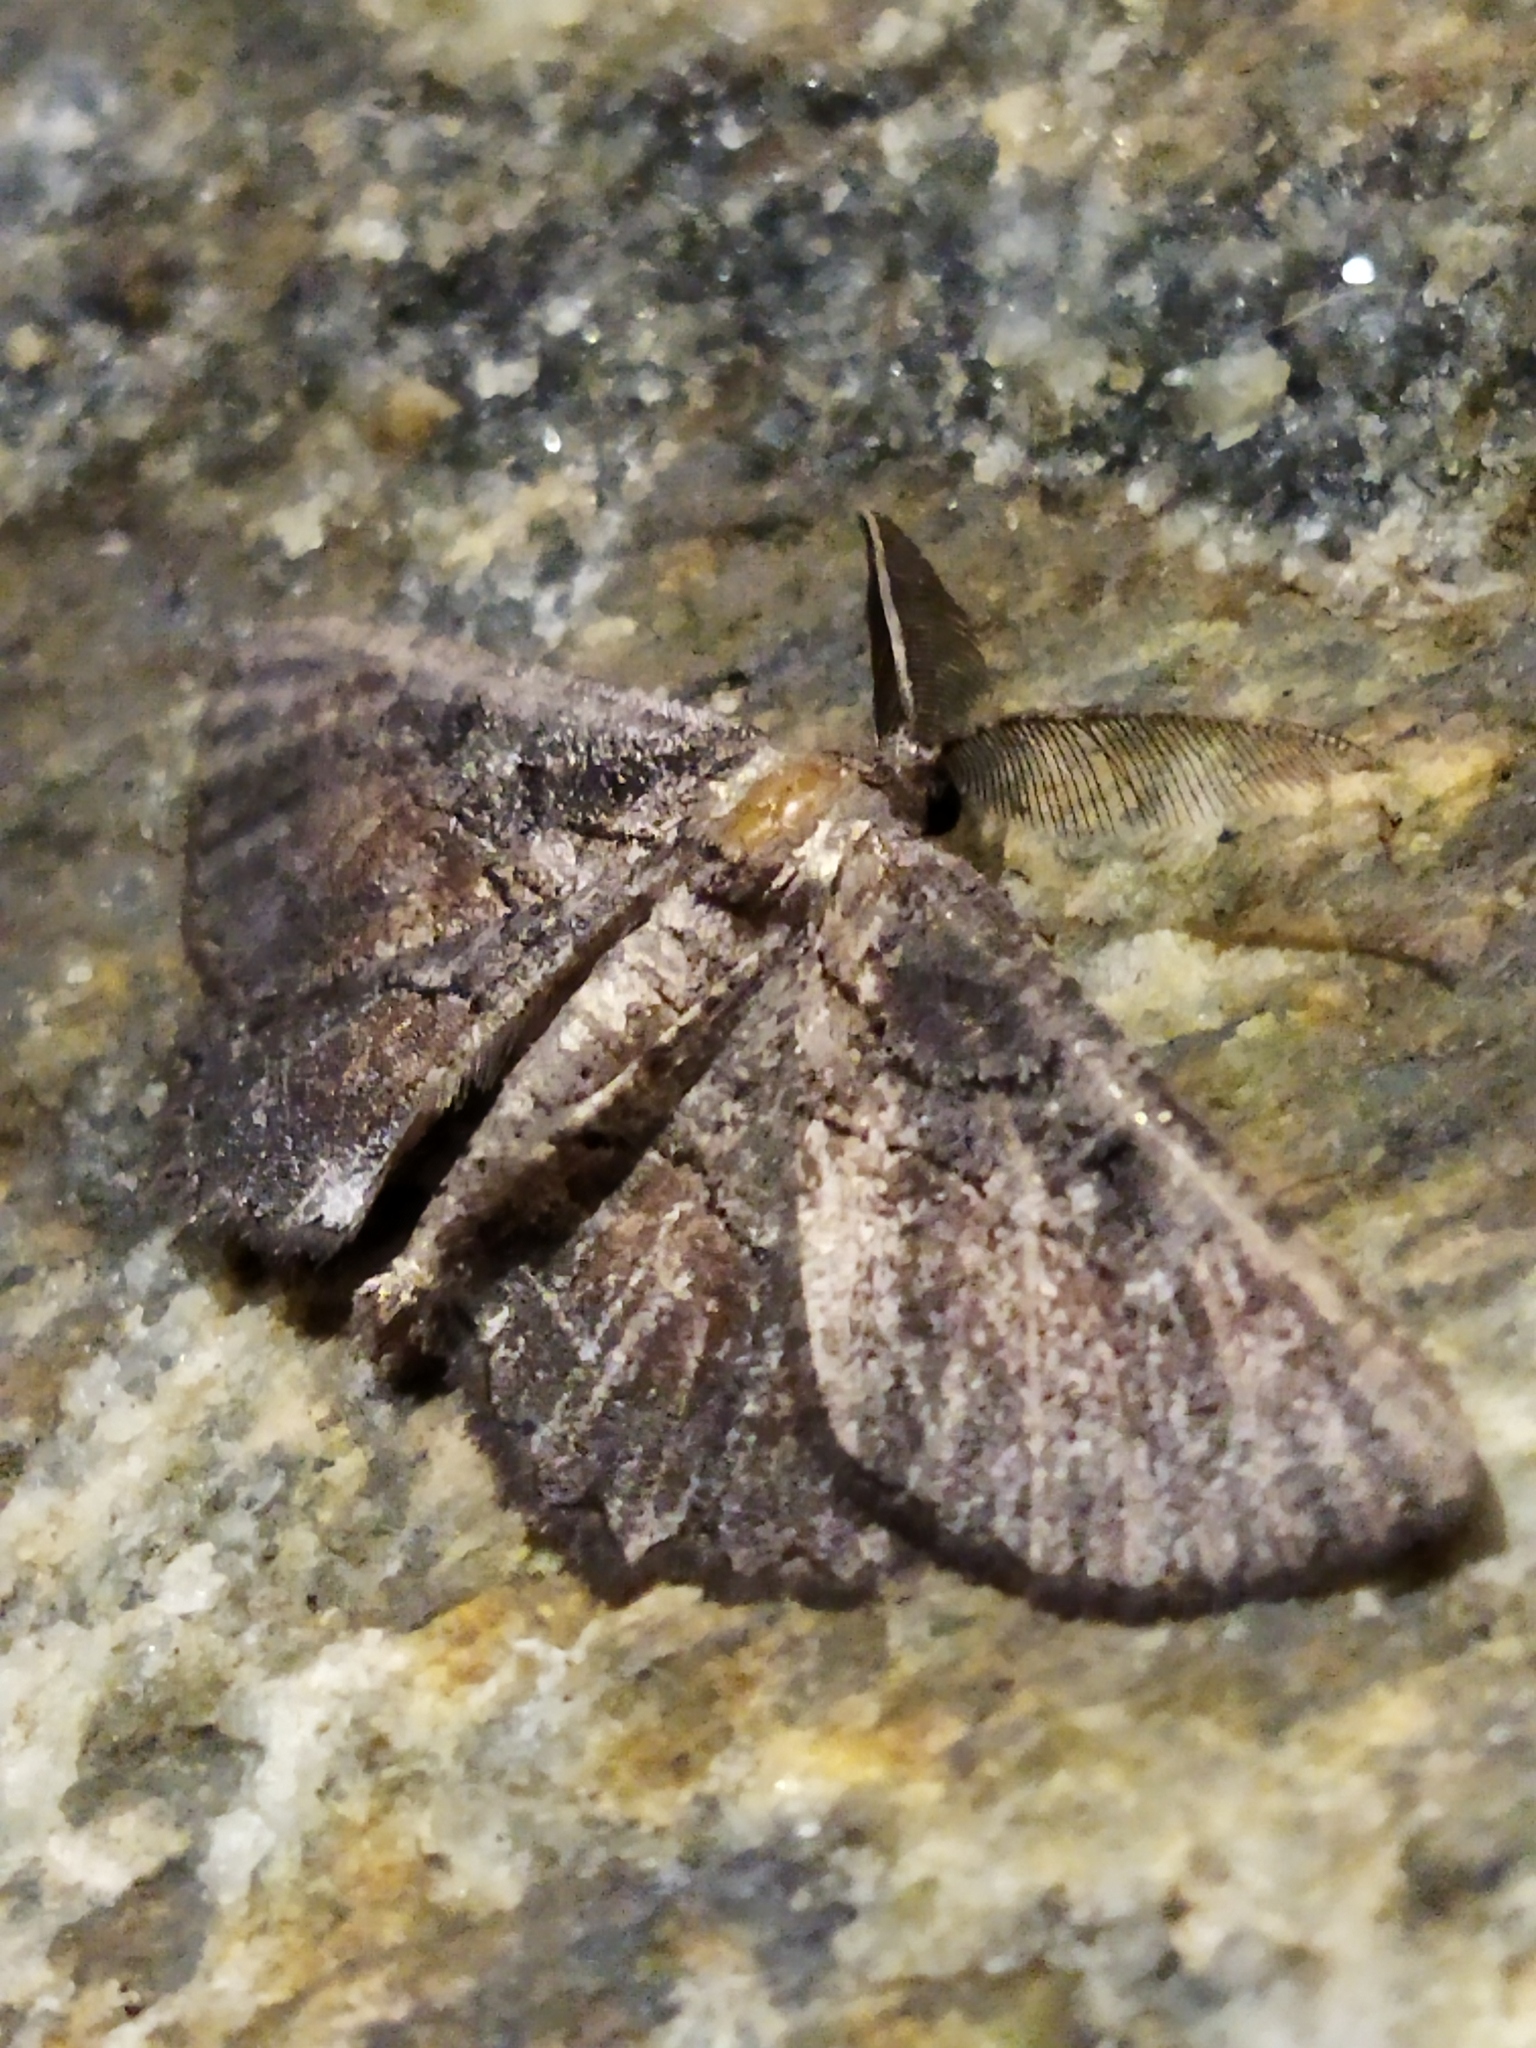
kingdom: Animalia
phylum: Arthropoda
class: Insecta
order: Lepidoptera
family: Geometridae
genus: Nychiodes
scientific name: Nychiodes waltheri
